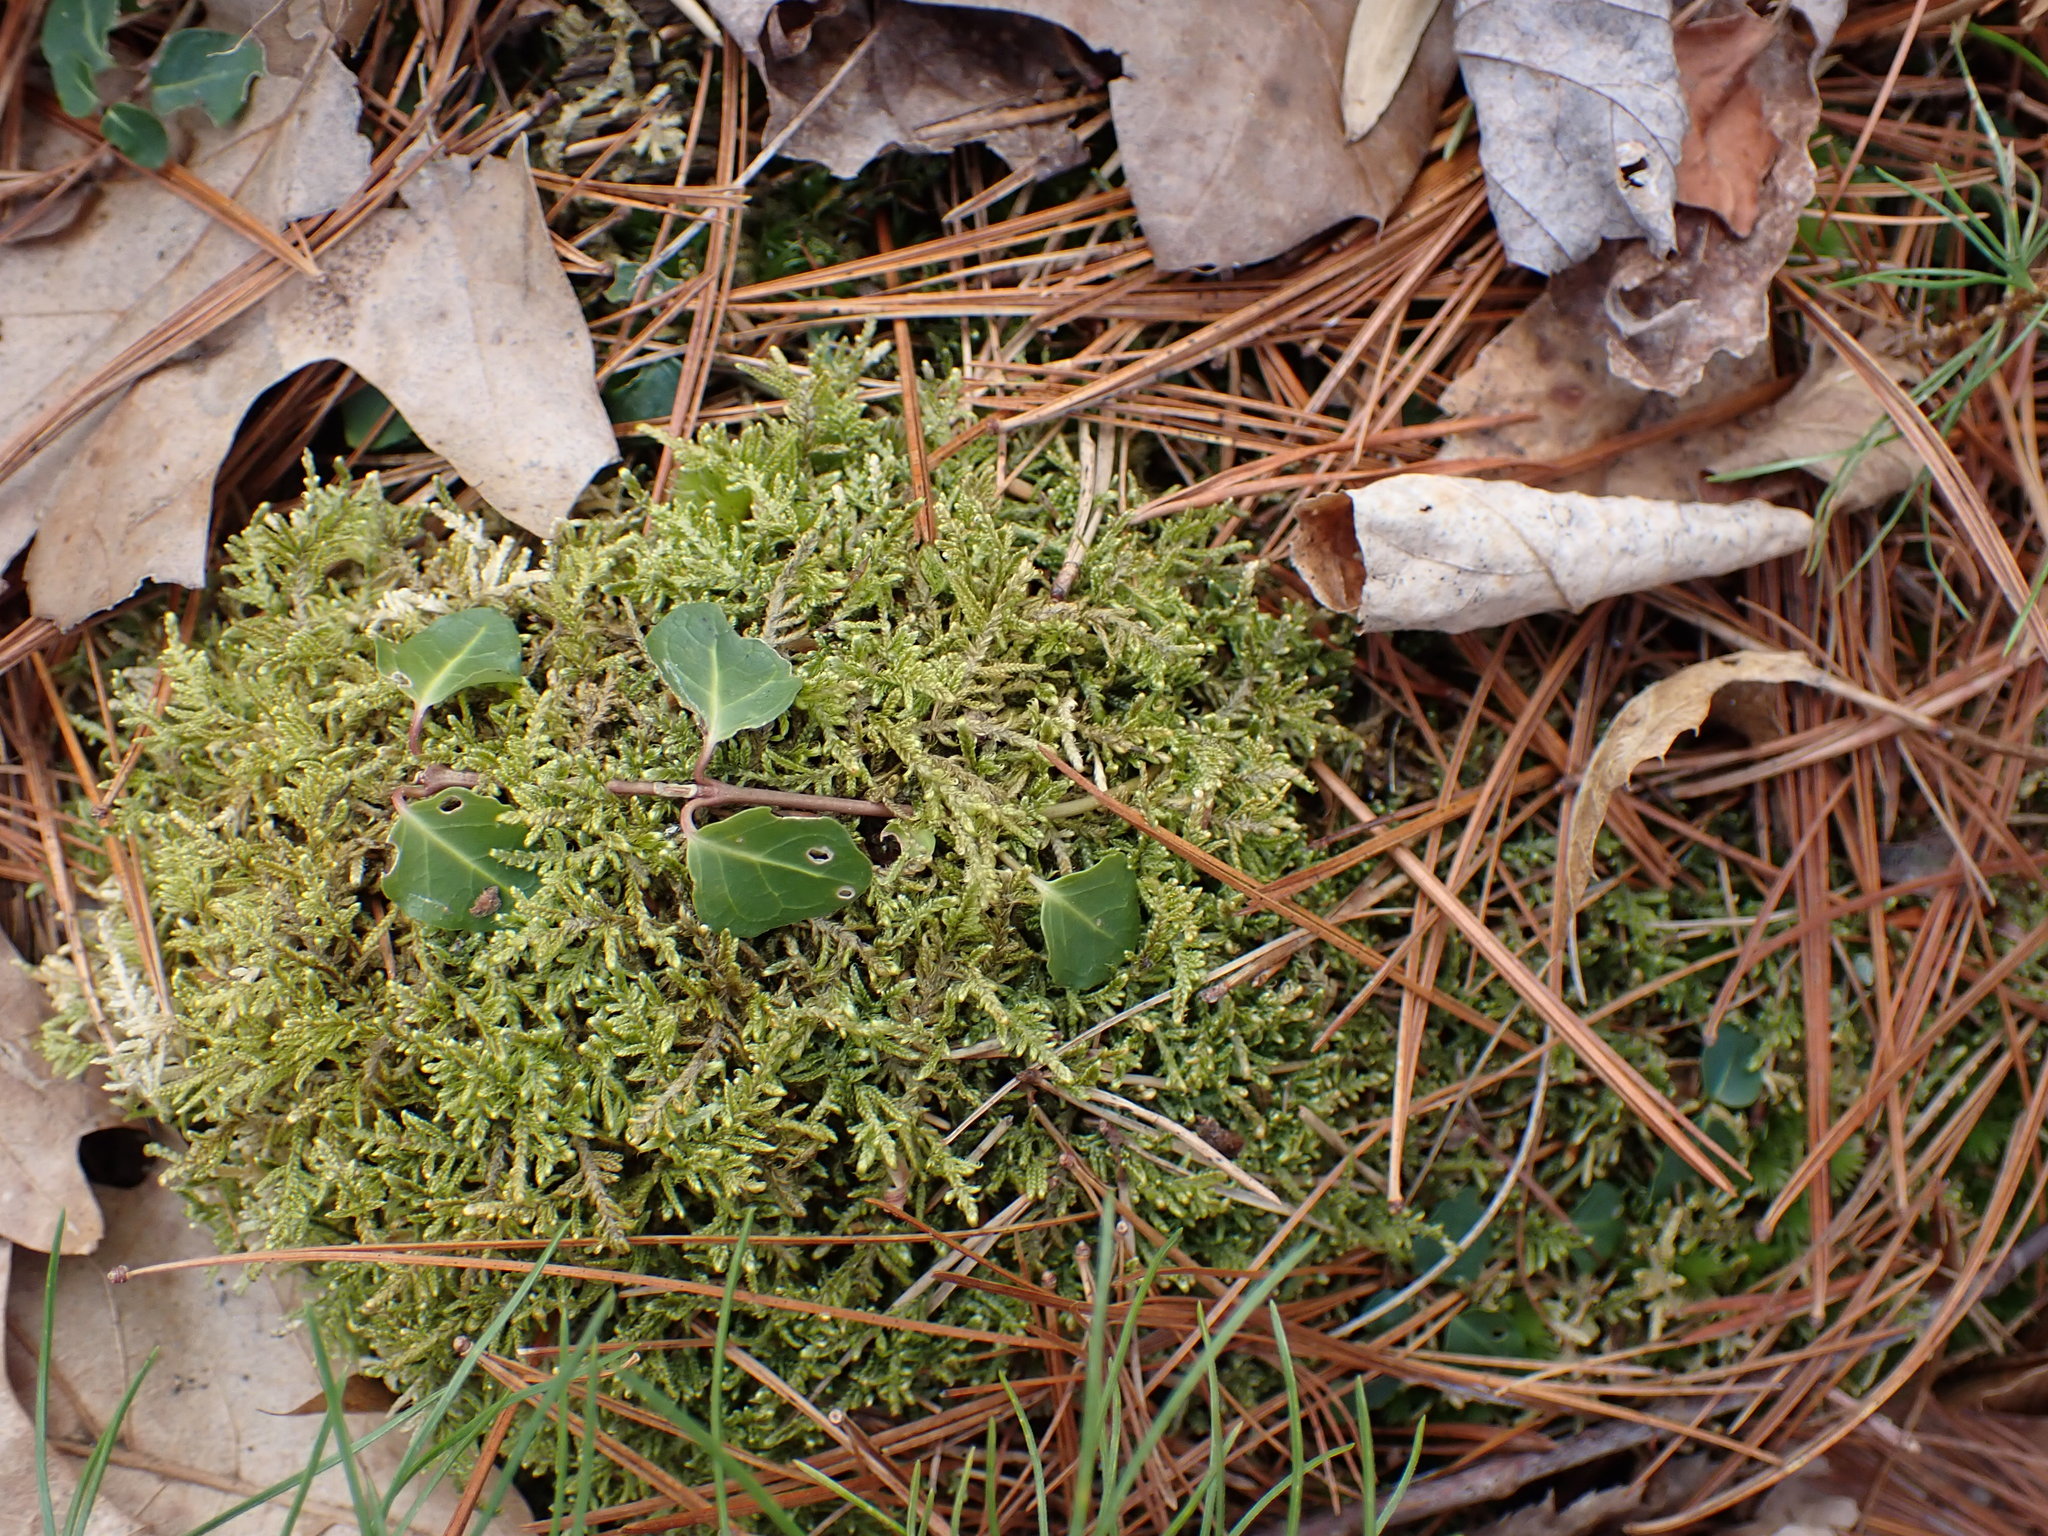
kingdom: Plantae
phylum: Tracheophyta
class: Magnoliopsida
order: Gentianales
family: Rubiaceae
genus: Mitchella
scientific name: Mitchella repens
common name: Partridge-berry
